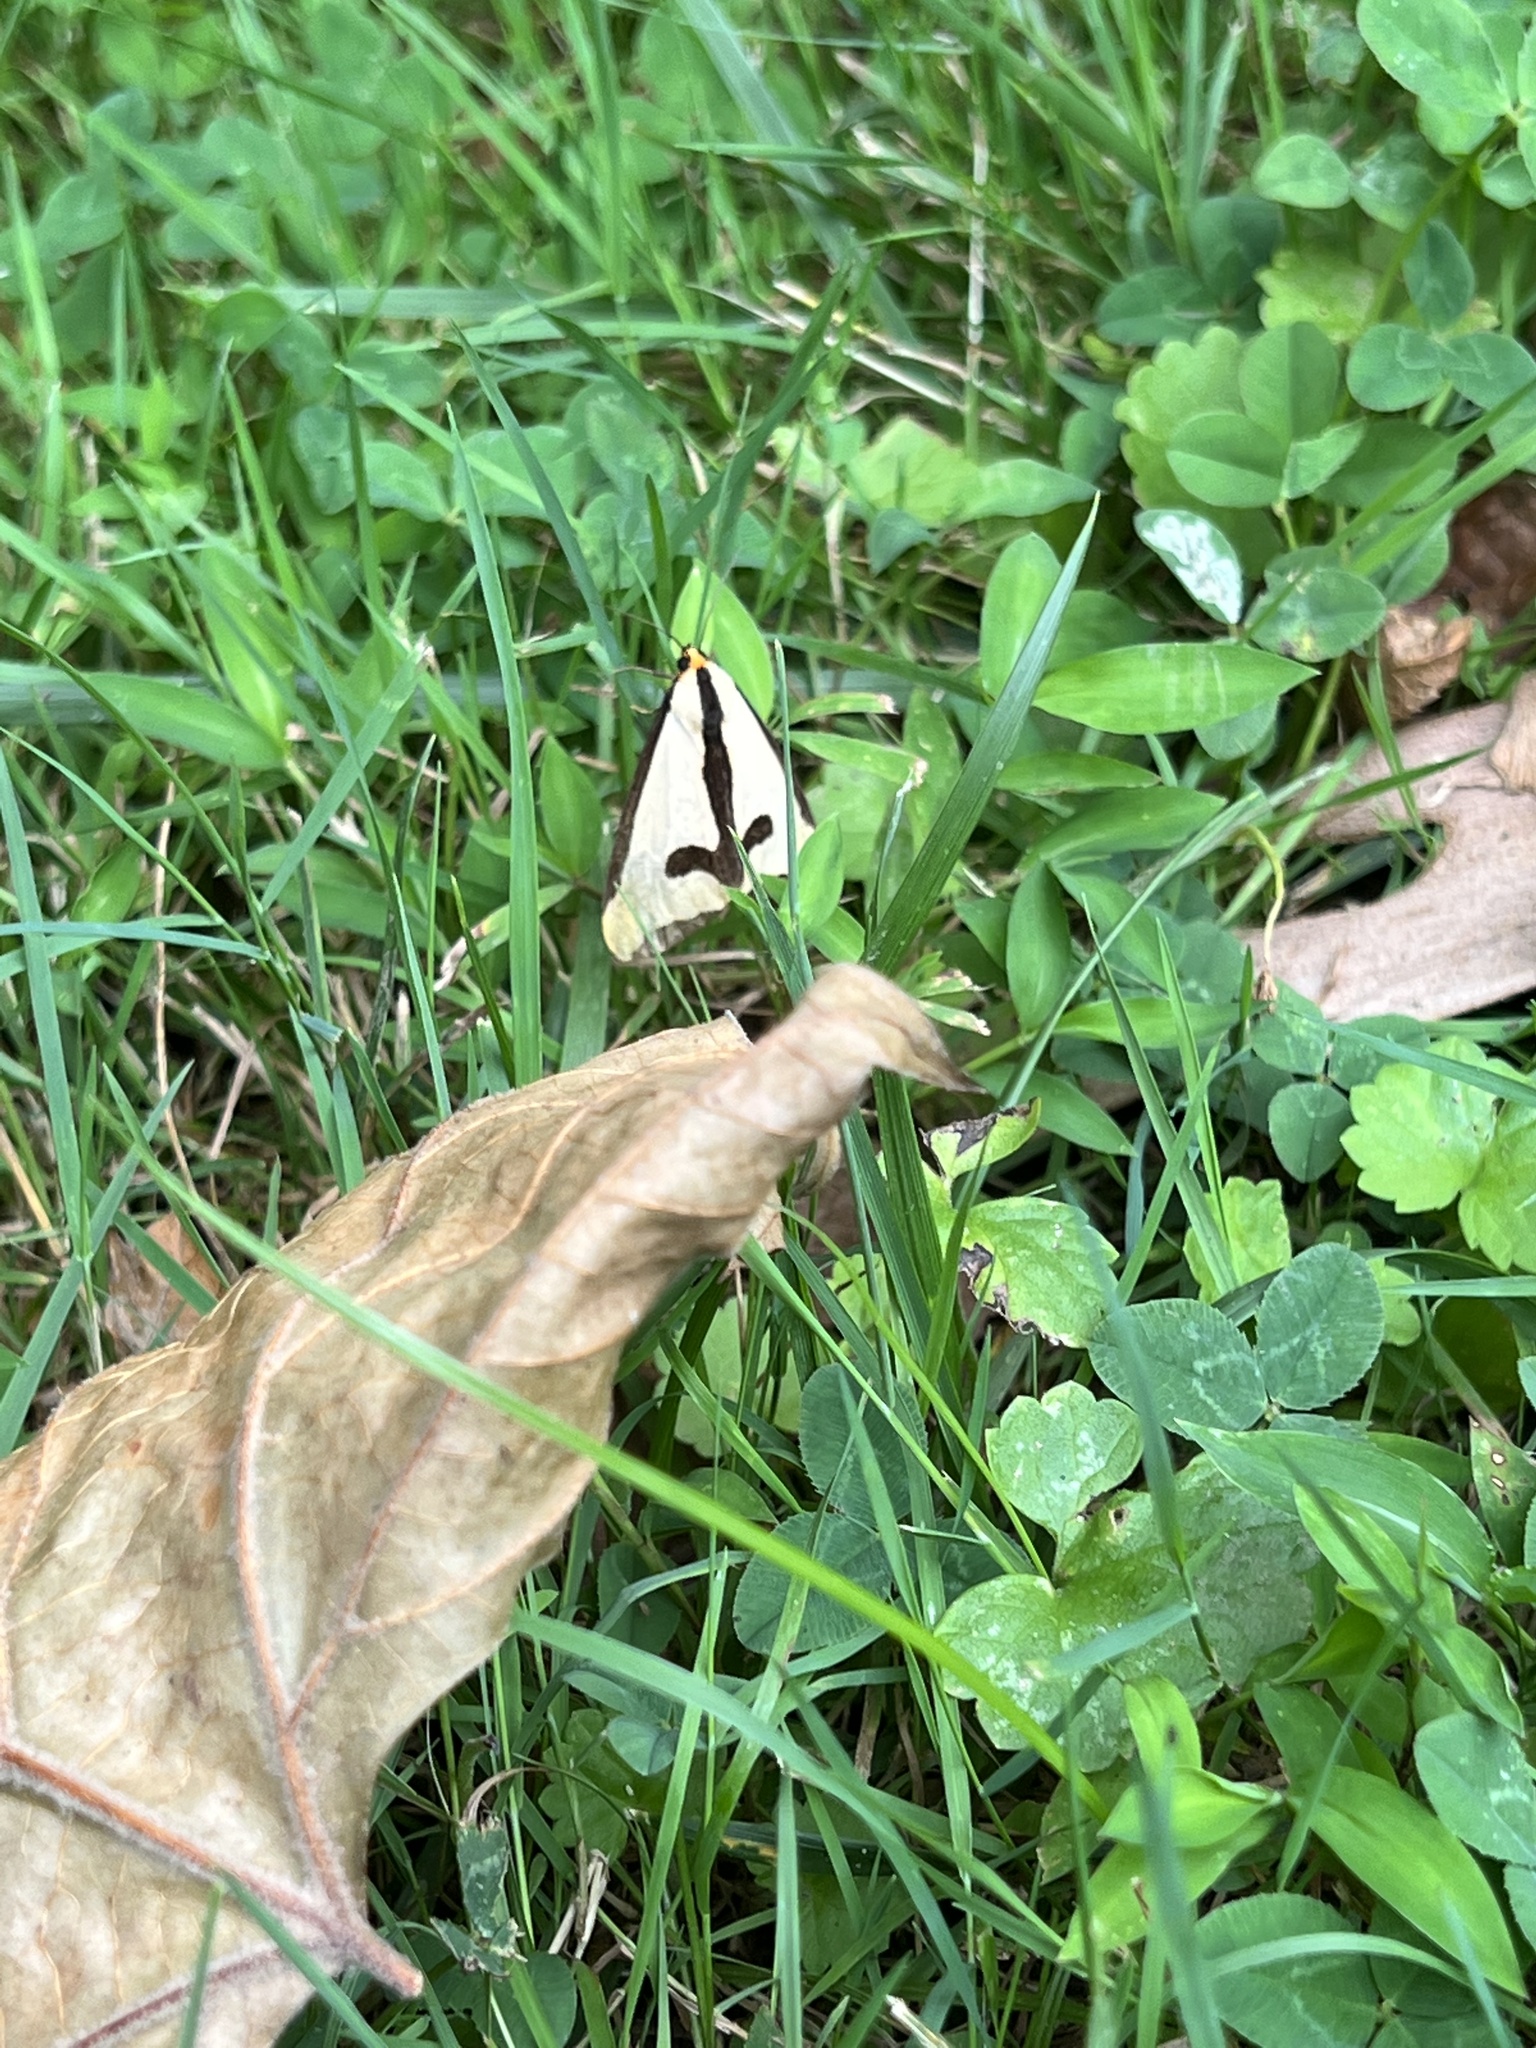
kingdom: Animalia
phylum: Arthropoda
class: Insecta
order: Lepidoptera
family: Erebidae
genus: Haploa
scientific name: Haploa clymene
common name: Clymene moth
